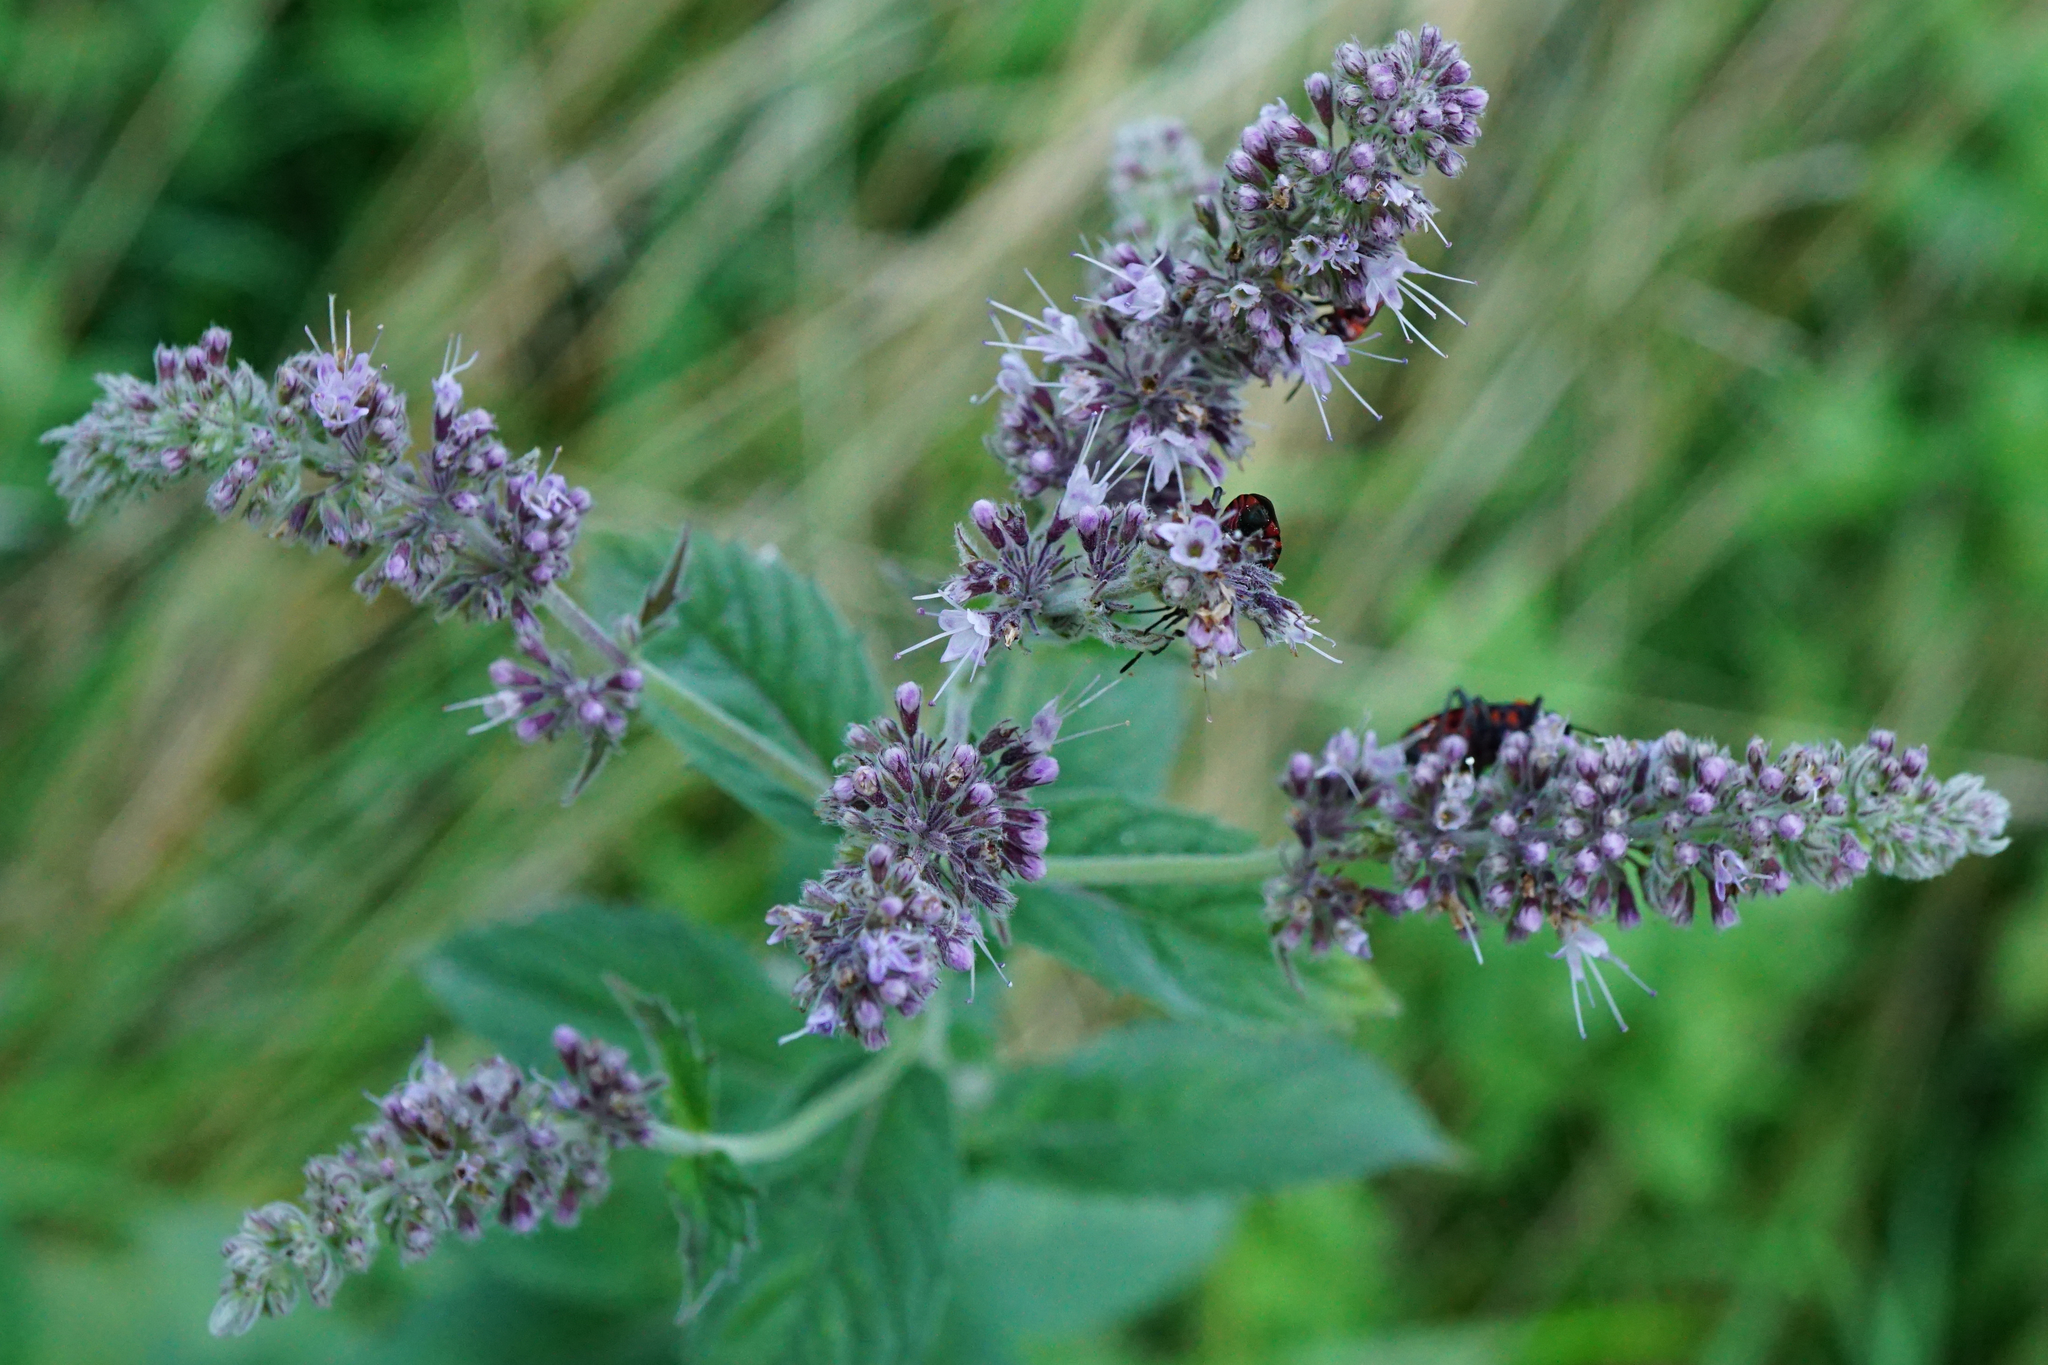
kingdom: Plantae
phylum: Tracheophyta
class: Magnoliopsida
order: Lamiales
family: Lamiaceae
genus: Mentha
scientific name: Mentha longifolia
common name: Horse mint
